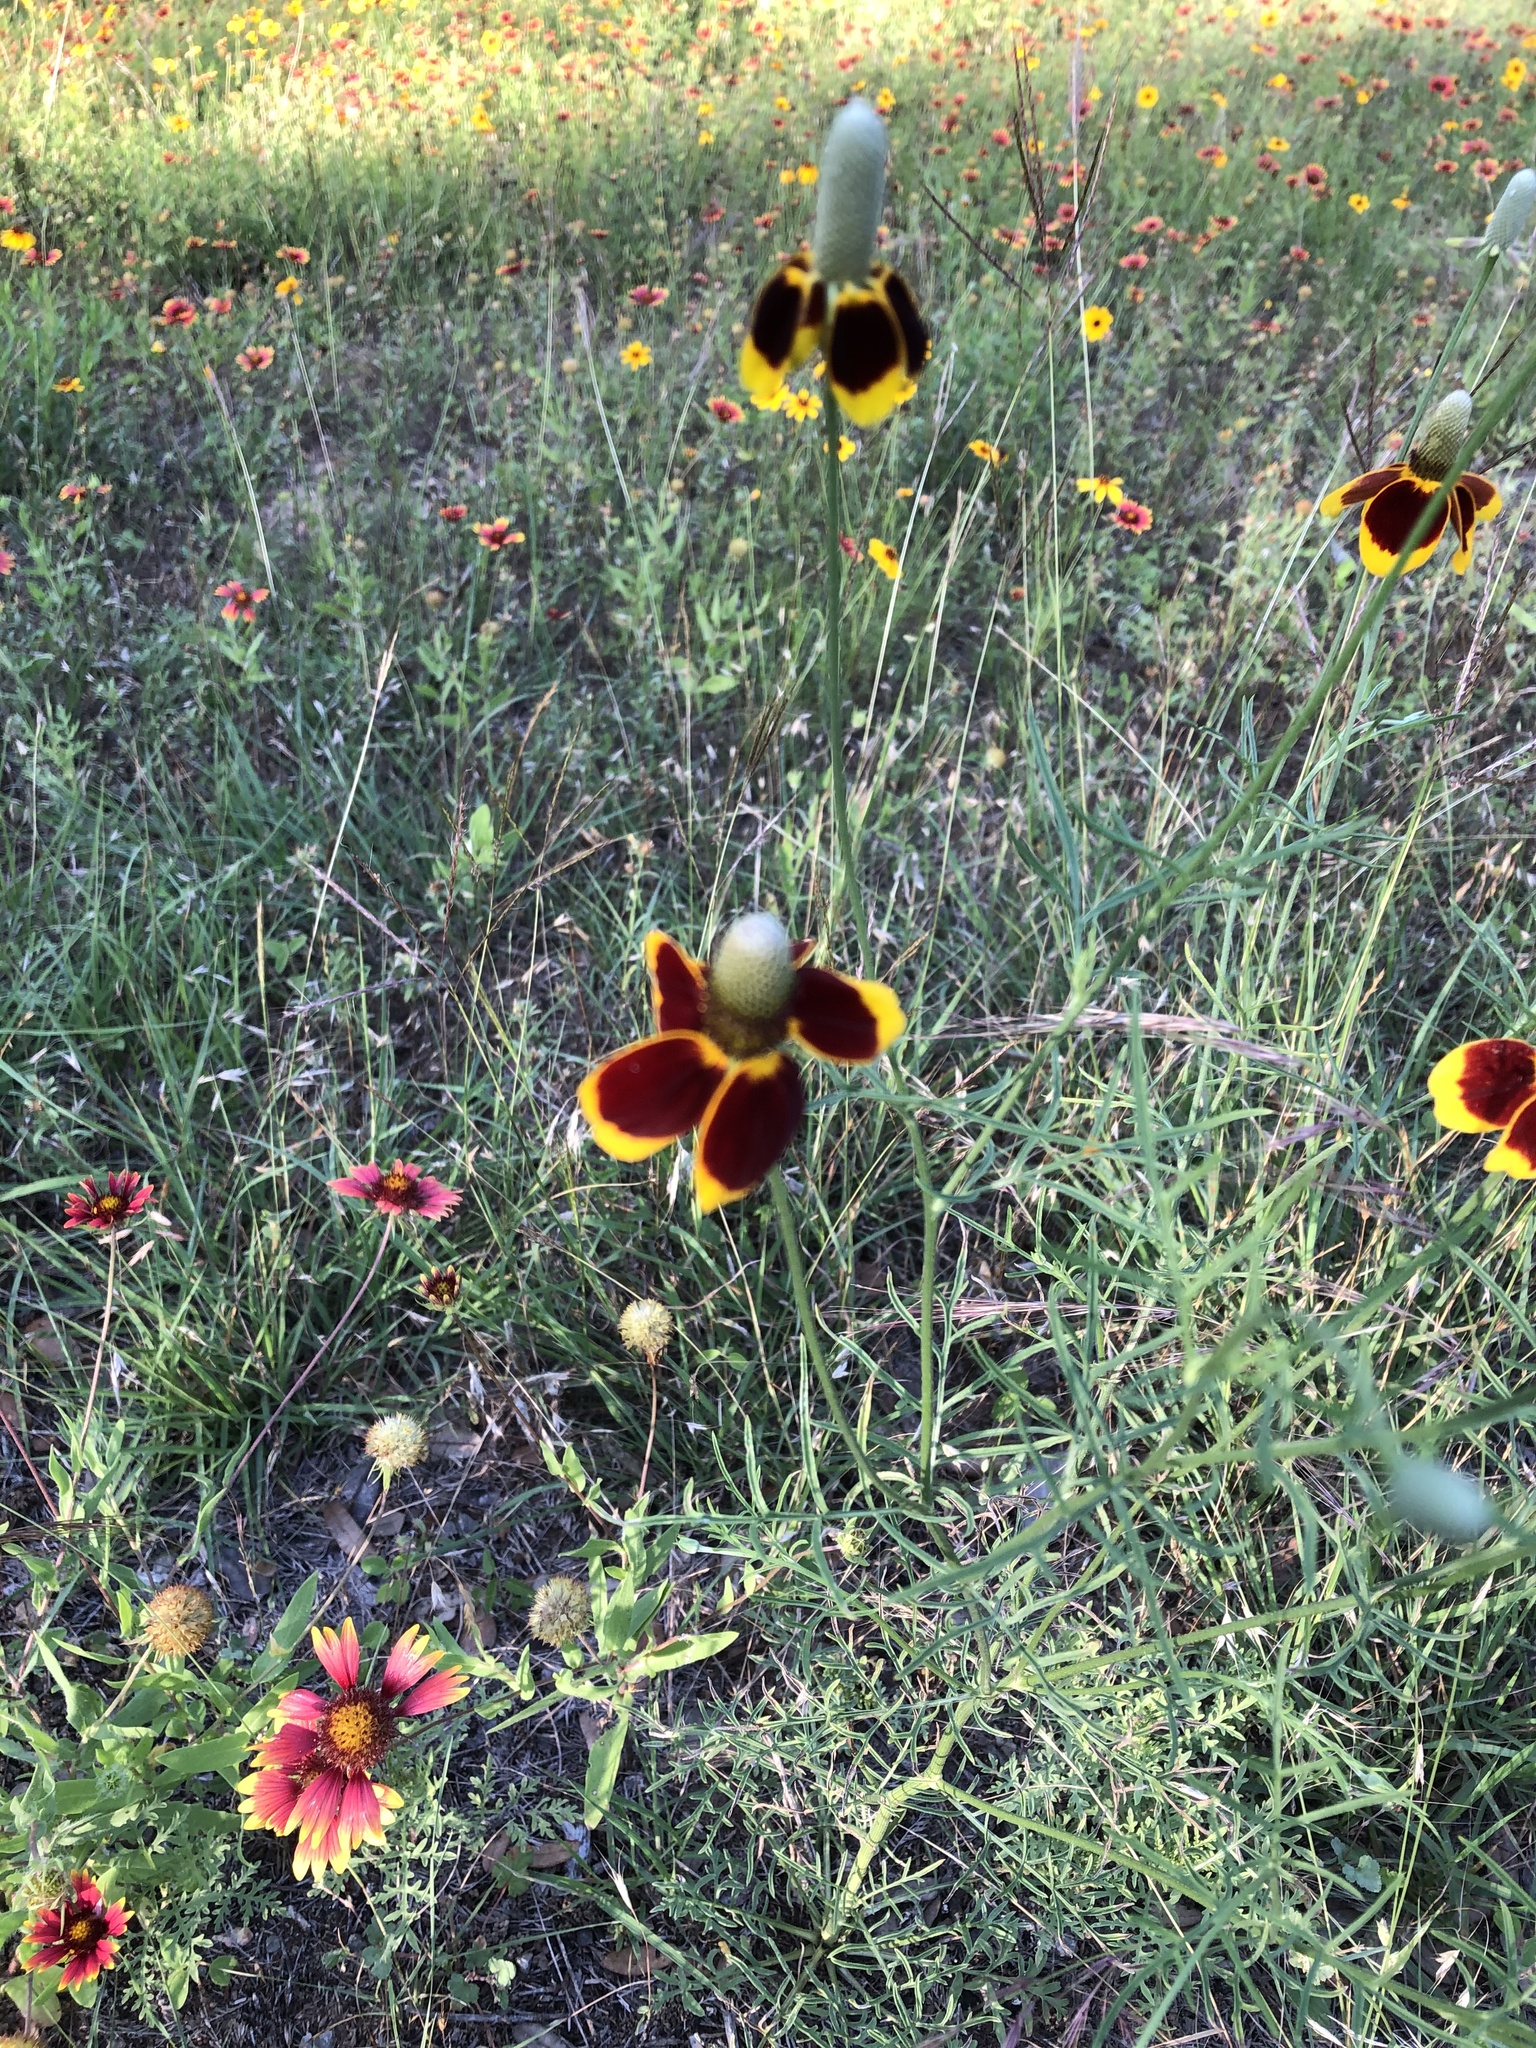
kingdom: Plantae
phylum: Tracheophyta
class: Magnoliopsida
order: Asterales
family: Asteraceae
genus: Ratibida
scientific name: Ratibida columnifera
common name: Prairie coneflower
